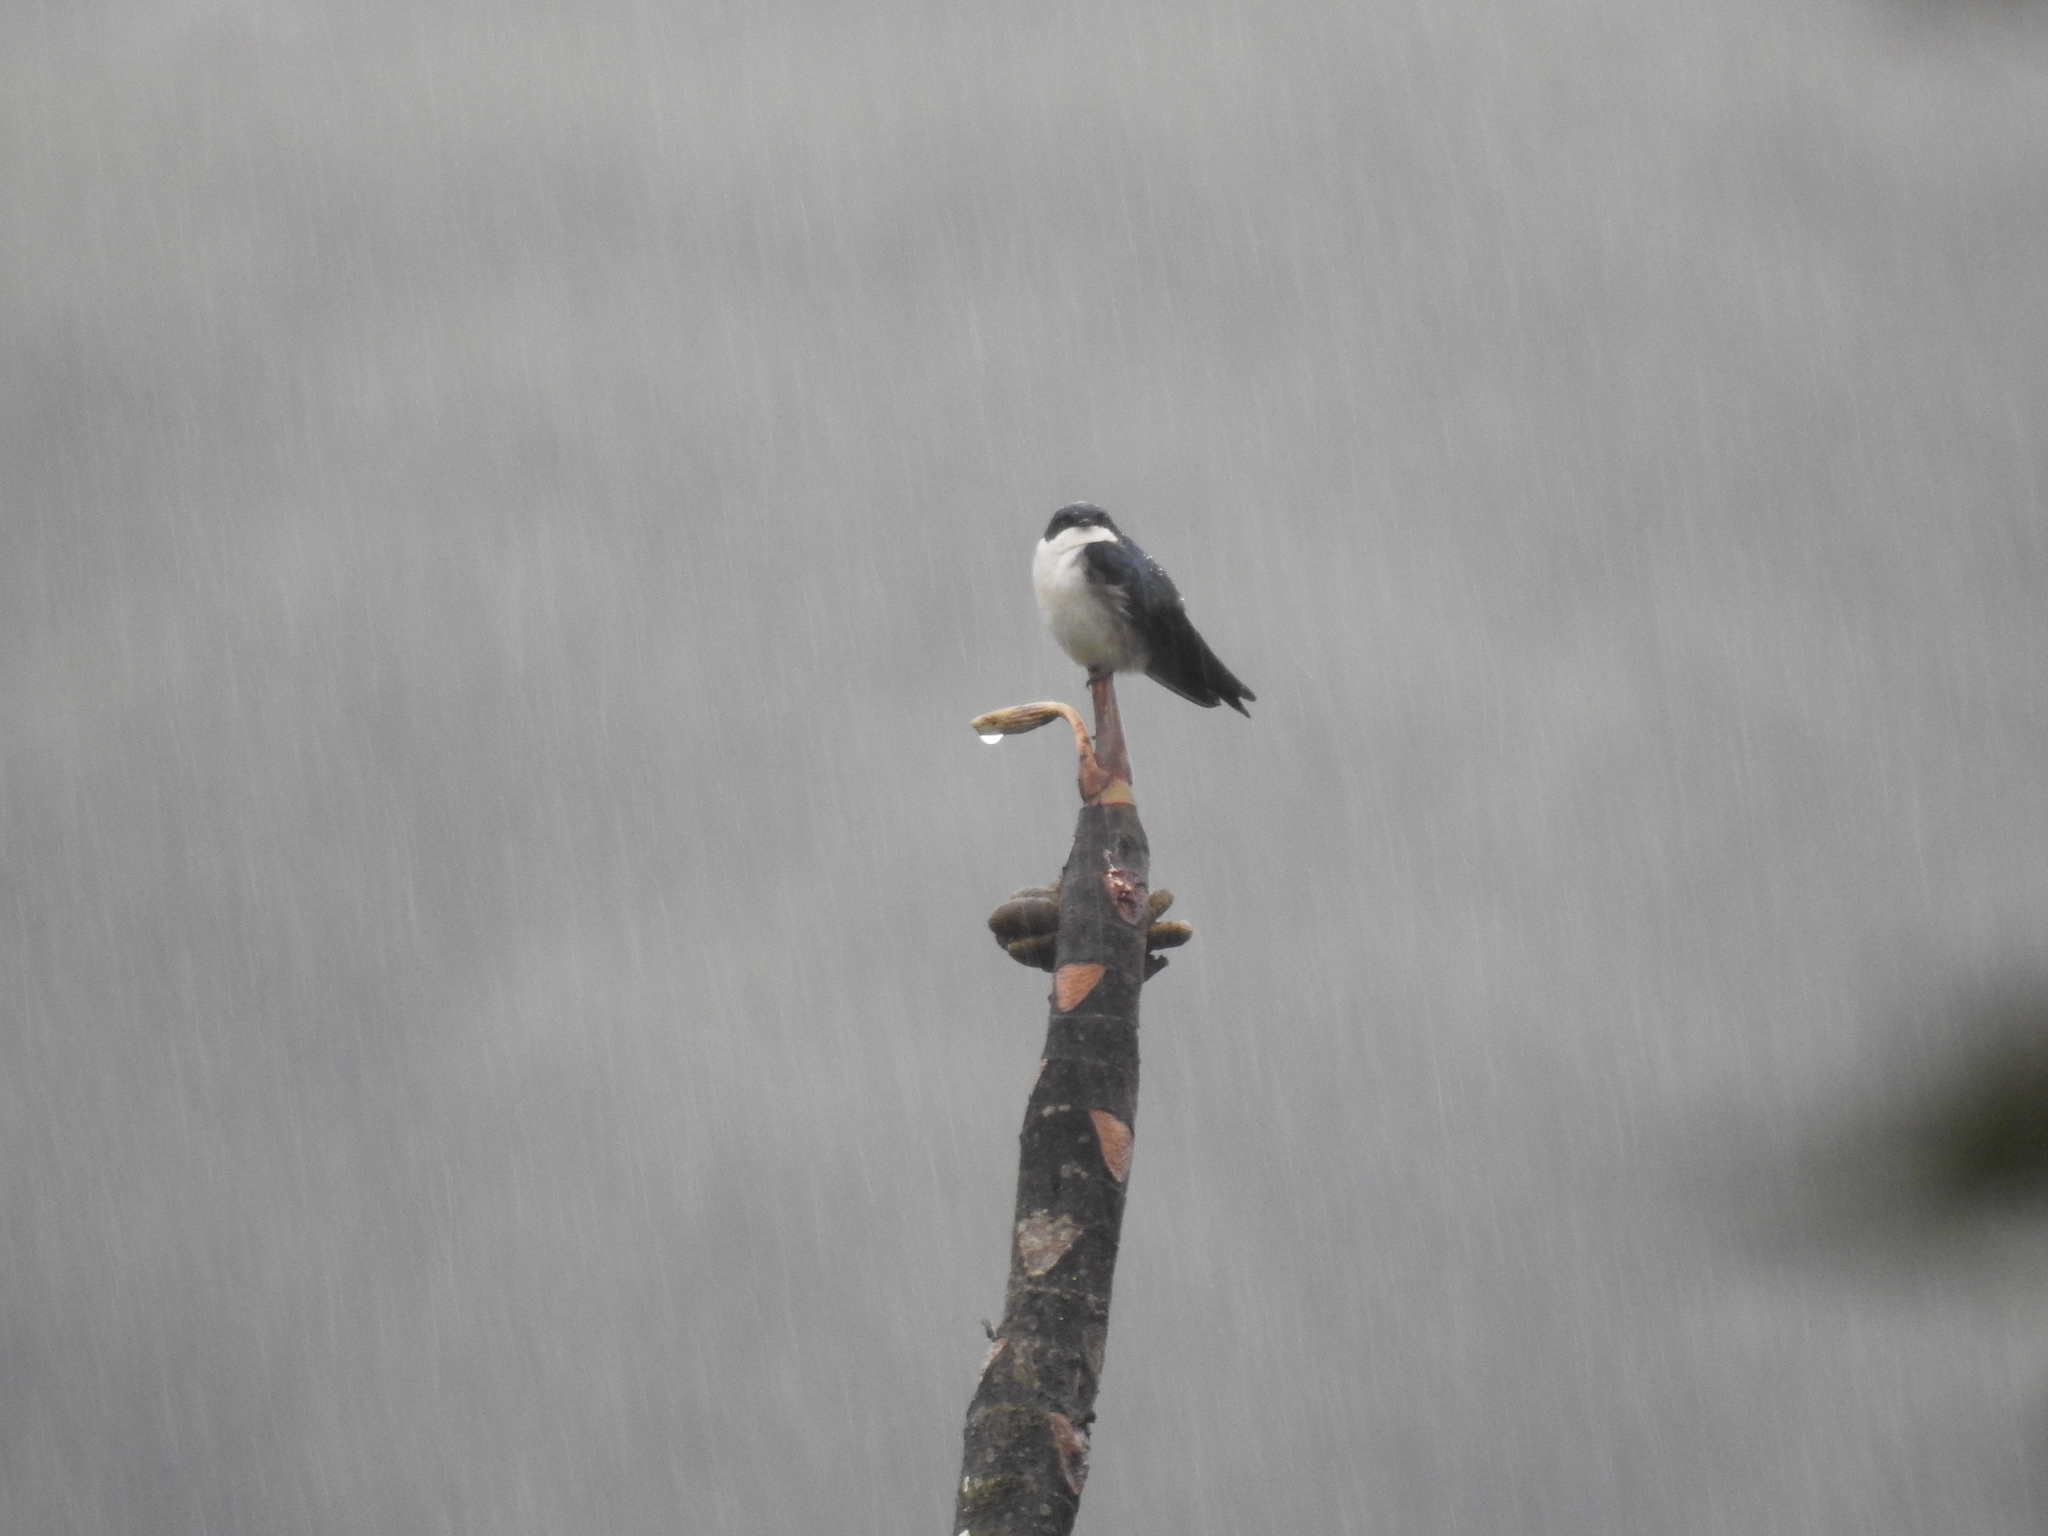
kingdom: Animalia
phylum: Chordata
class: Aves
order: Passeriformes
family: Hirundinidae
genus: Notiochelidon
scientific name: Notiochelidon cyanoleuca
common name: Blue-and-white swallow
